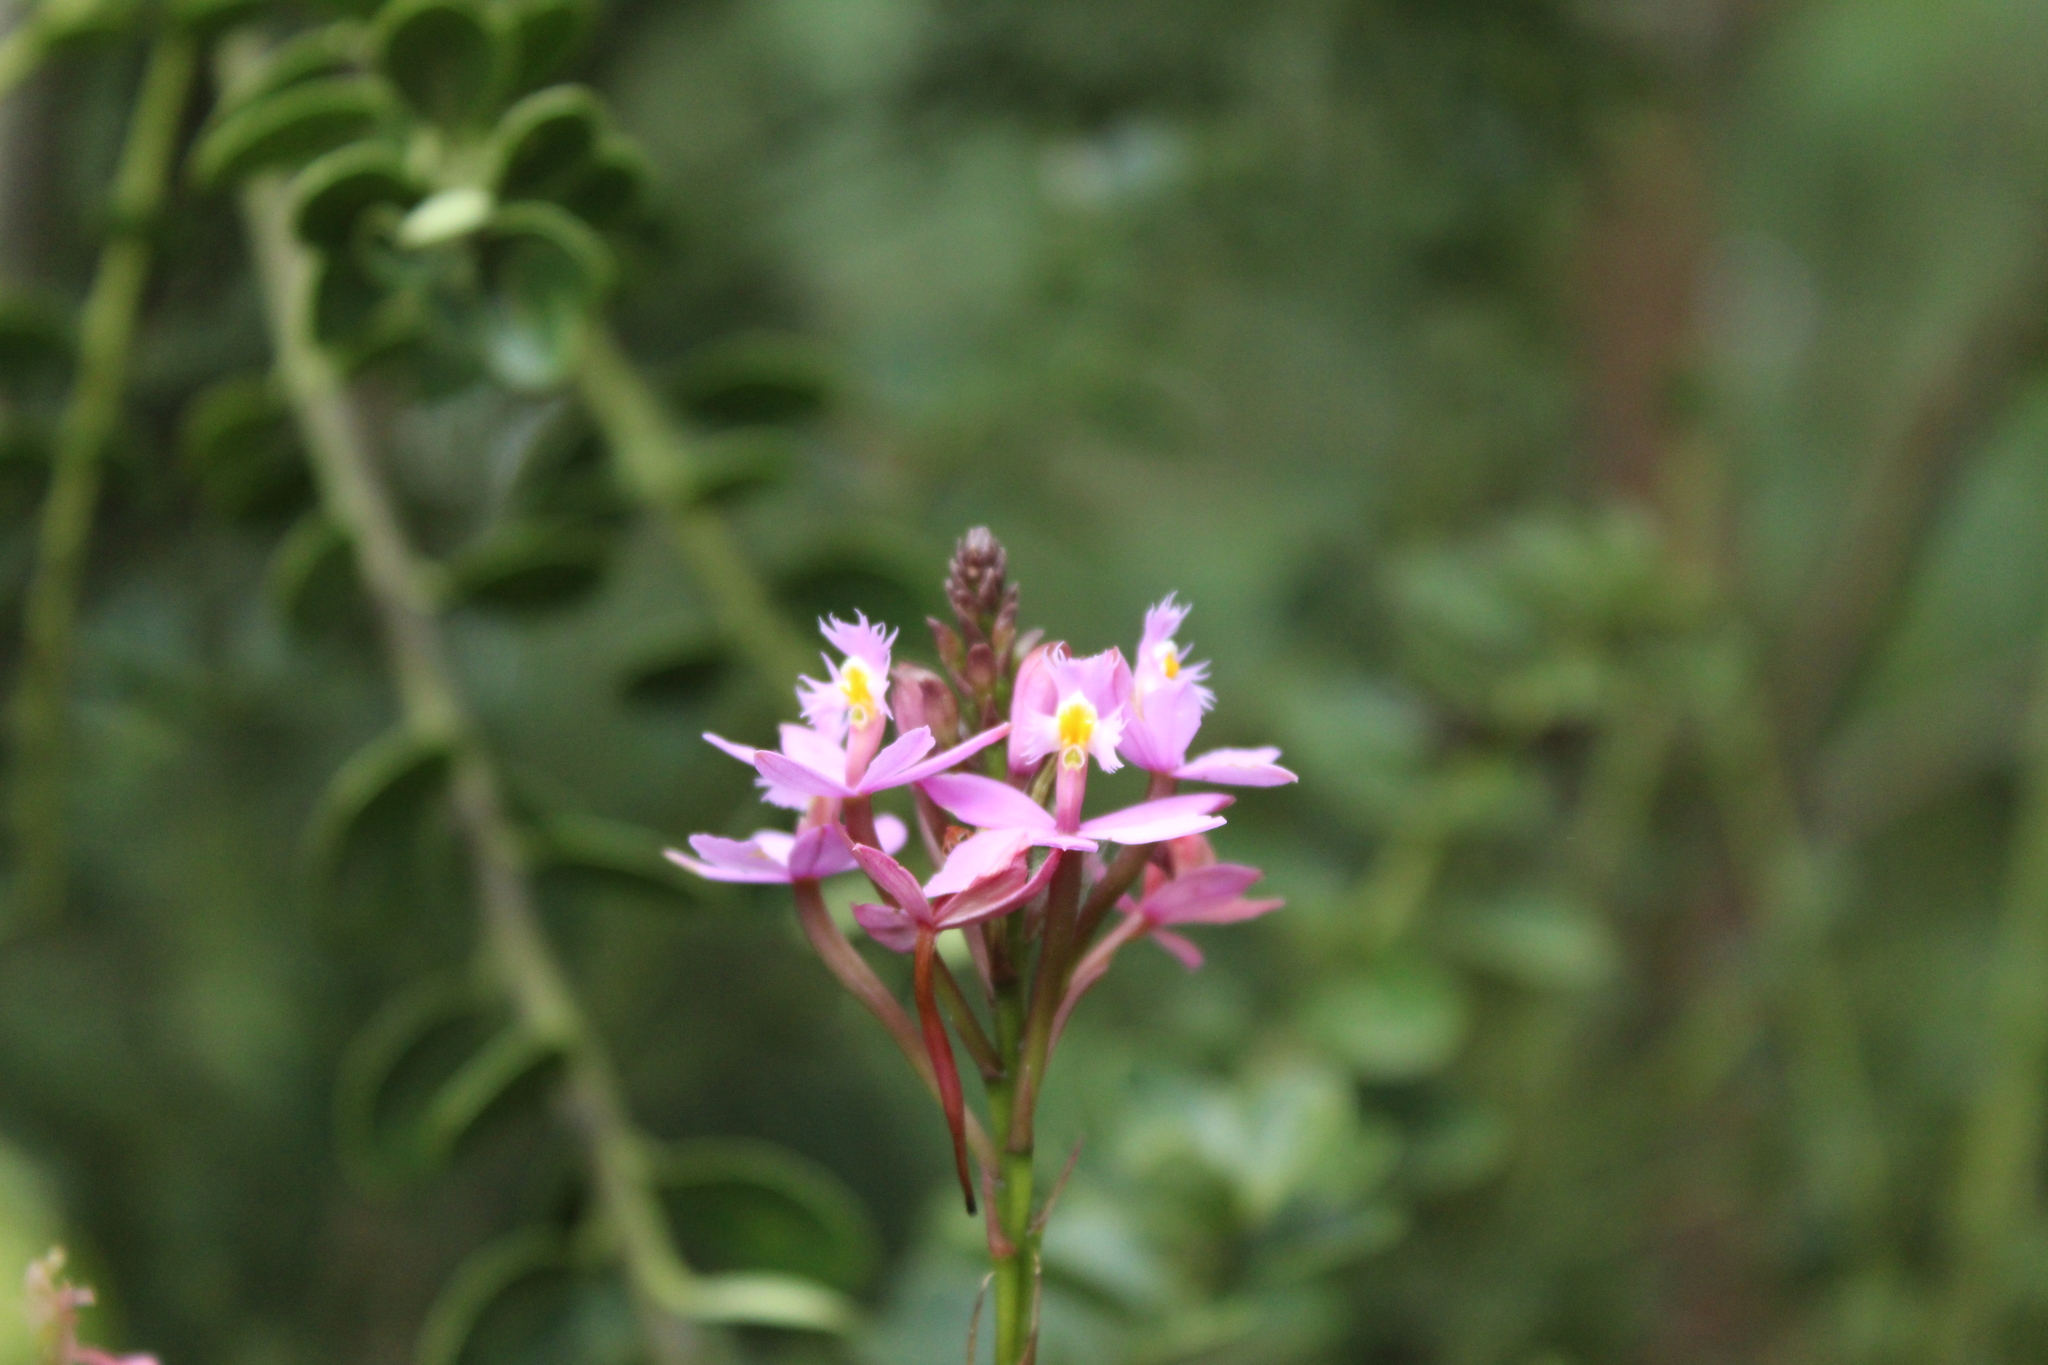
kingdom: Plantae
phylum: Tracheophyta
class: Liliopsida
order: Asparagales
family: Orchidaceae
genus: Epidendrum
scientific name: Epidendrum arachnoglossum
